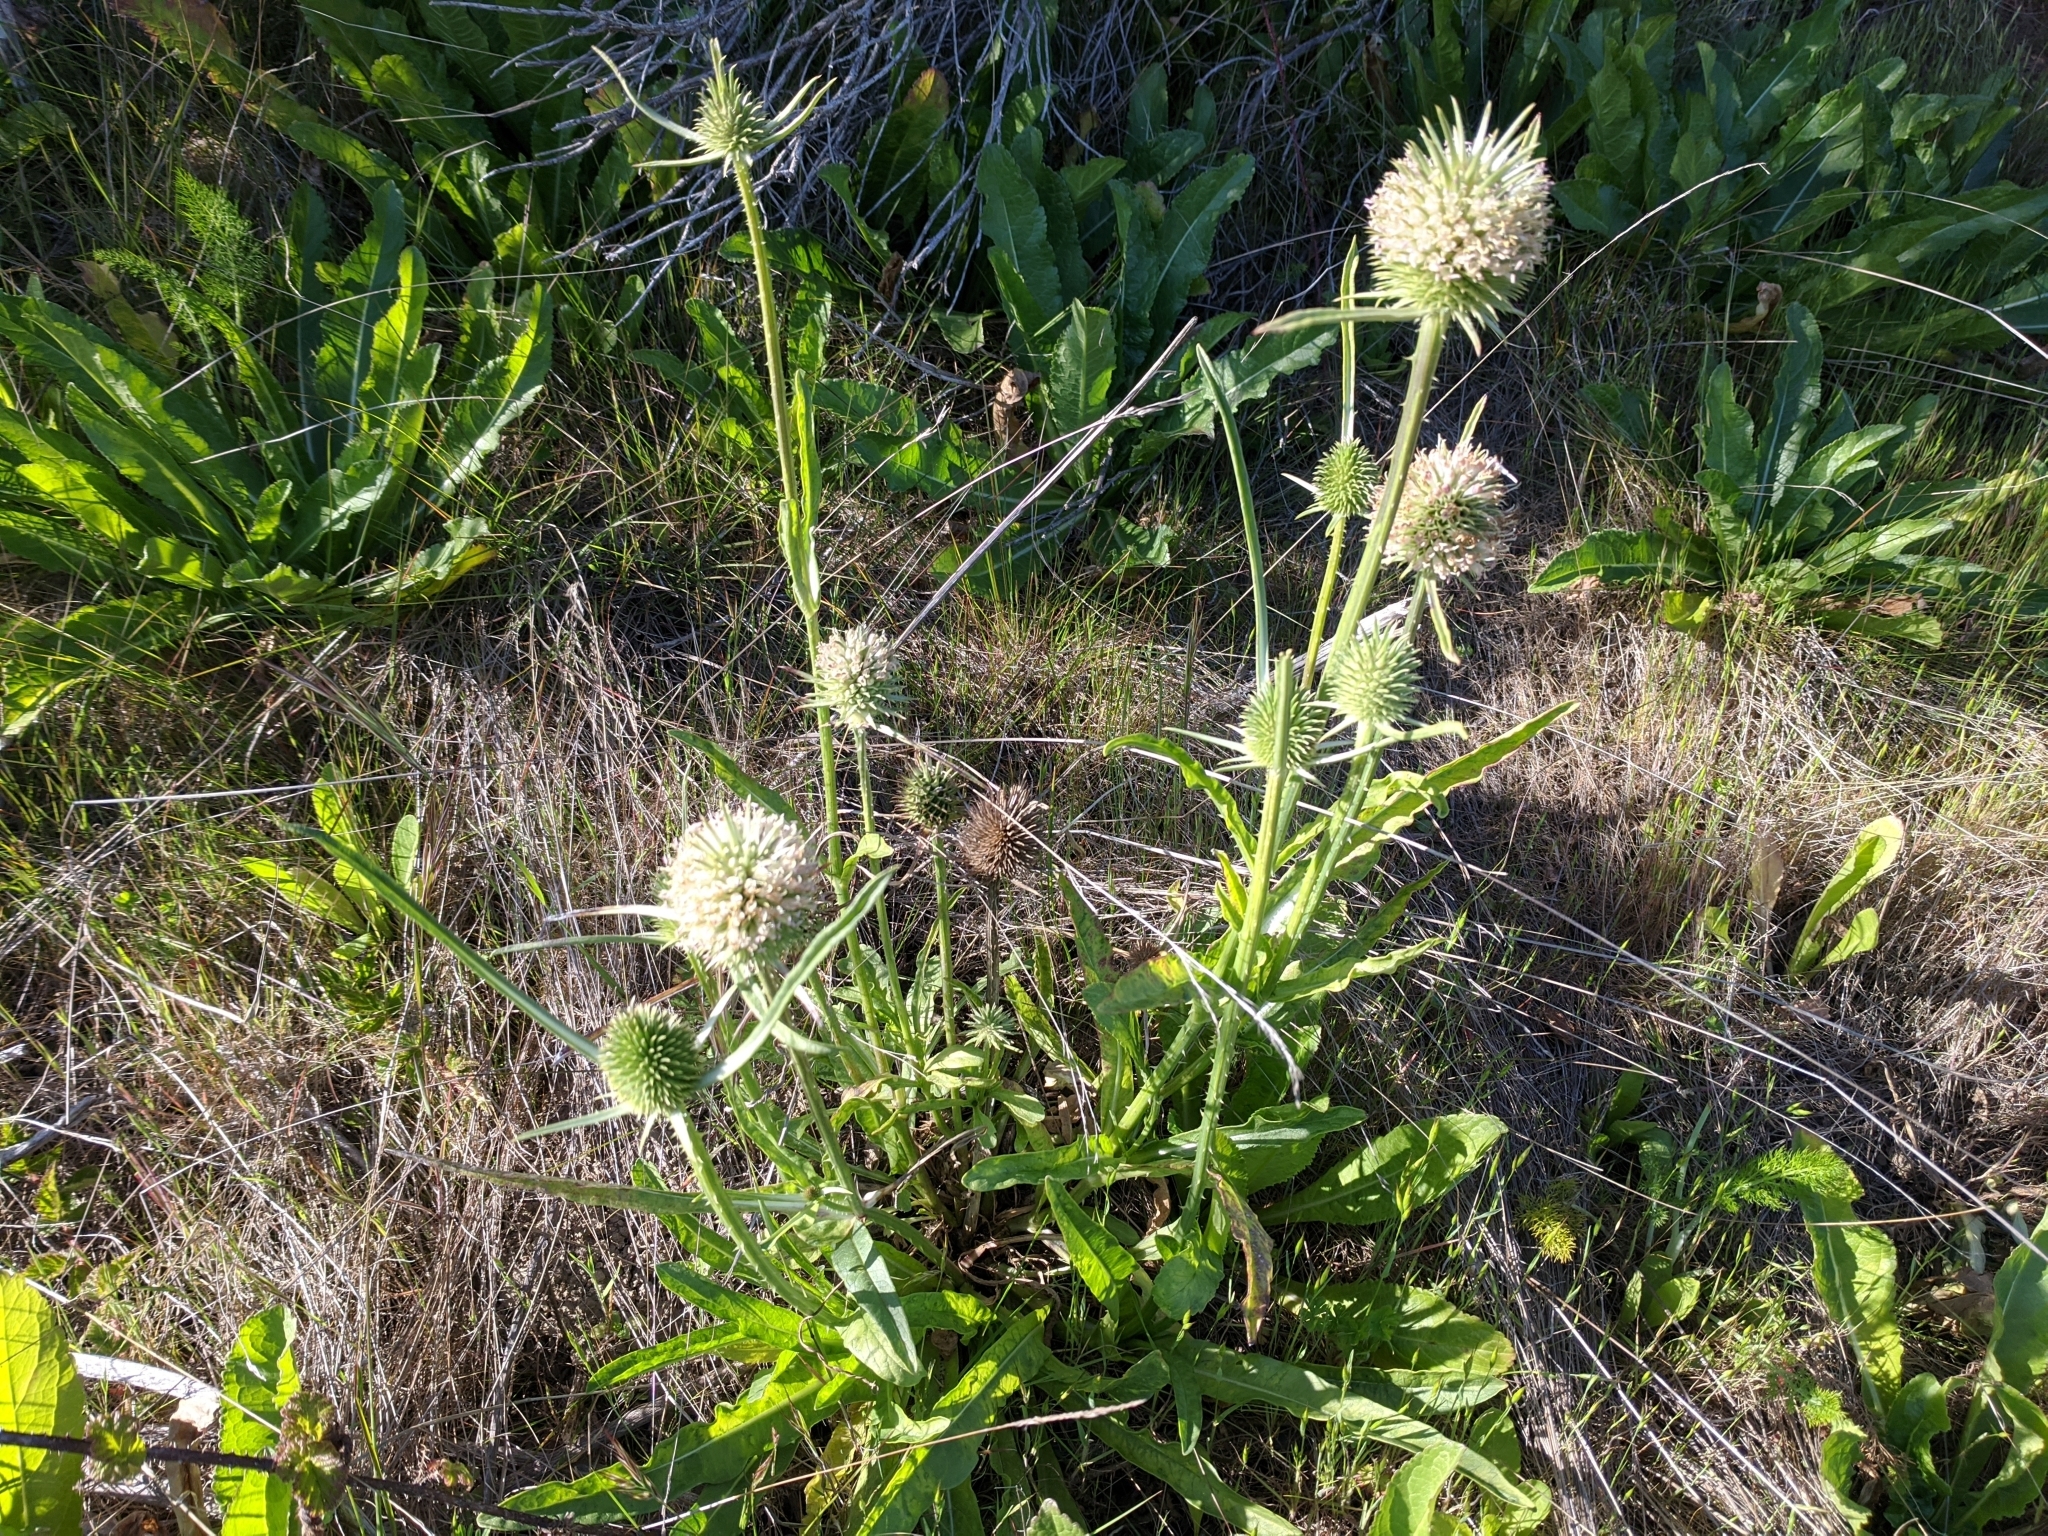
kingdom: Plantae
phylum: Tracheophyta
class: Magnoliopsida
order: Dipsacales
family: Caprifoliaceae
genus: Dipsacus
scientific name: Dipsacus sativus
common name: Fuller's teasel
